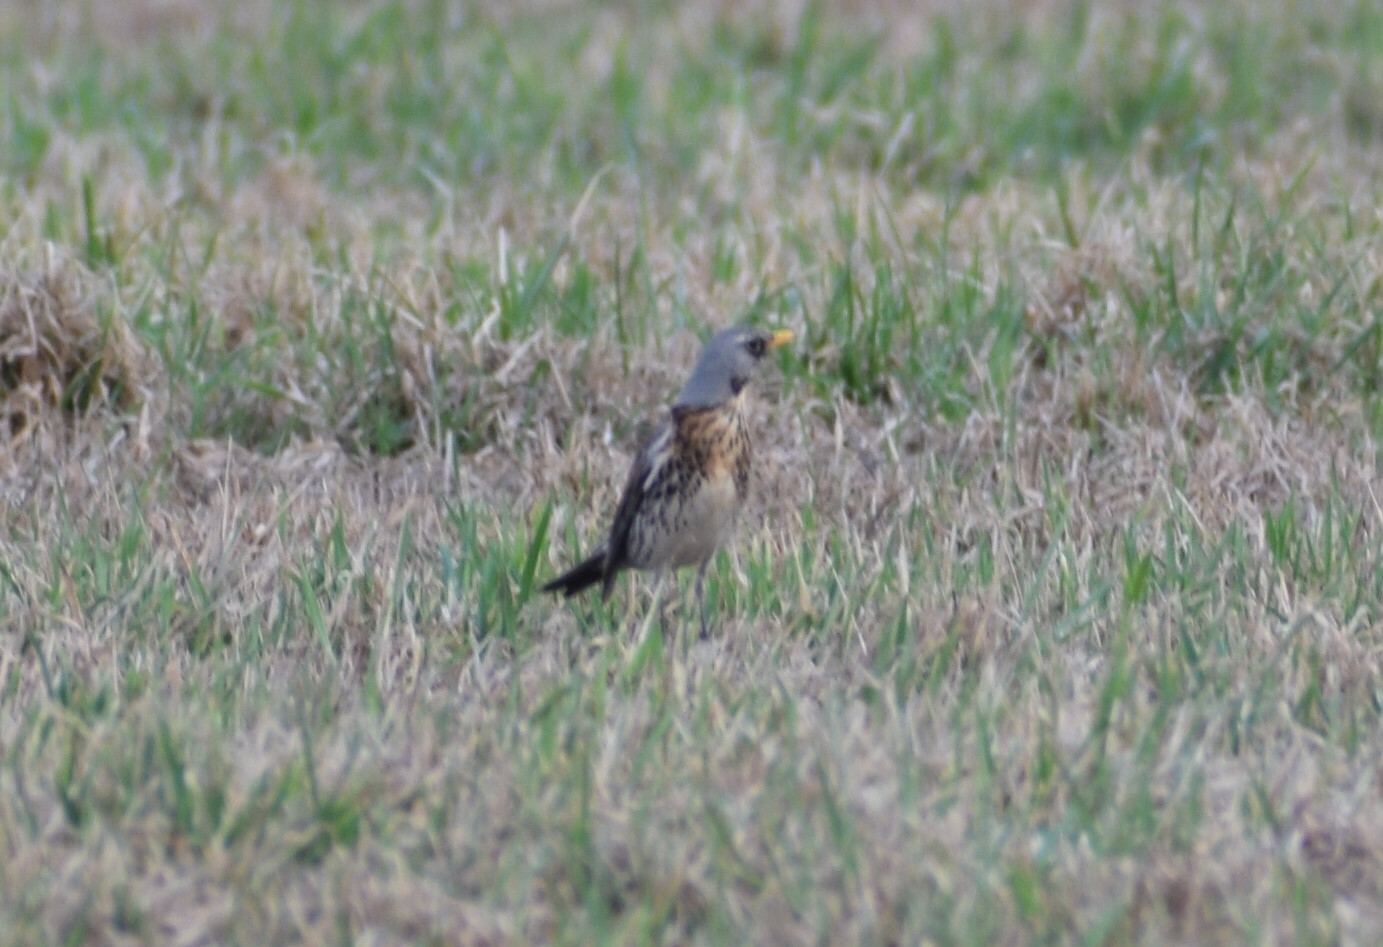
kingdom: Animalia
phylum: Chordata
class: Aves
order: Passeriformes
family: Turdidae
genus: Turdus
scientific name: Turdus pilaris
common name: Fieldfare
